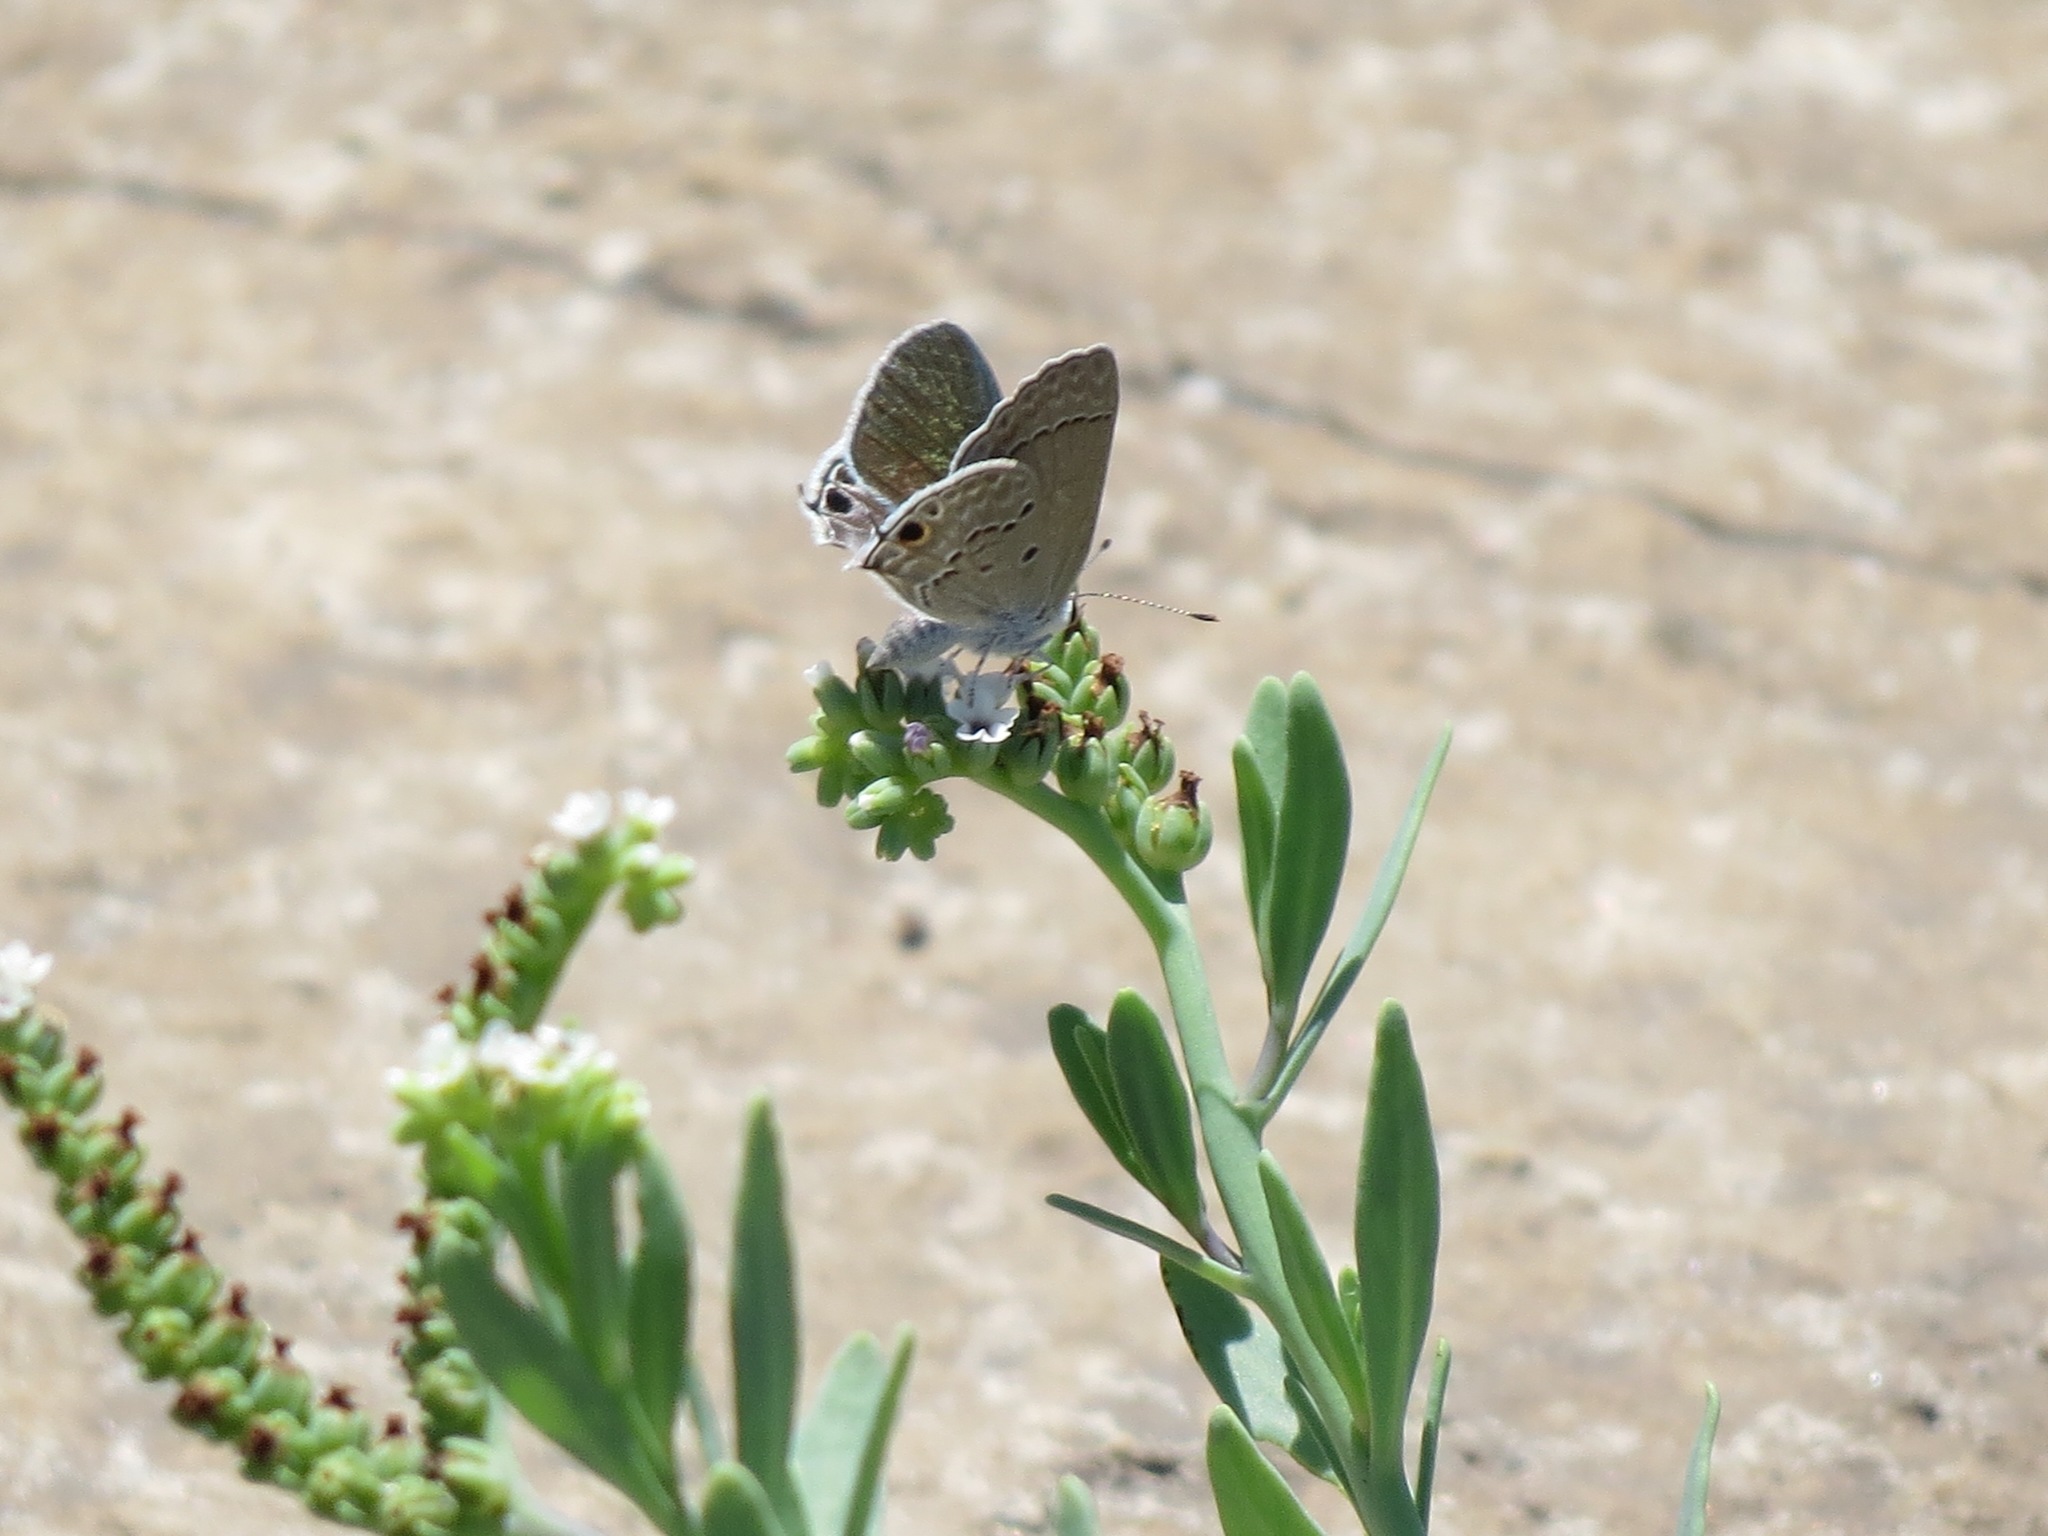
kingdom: Animalia
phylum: Arthropoda
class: Insecta
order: Lepidoptera
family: Lycaenidae
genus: Hemiargus
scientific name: Hemiargus ceraunus
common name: Ceraunus blue
